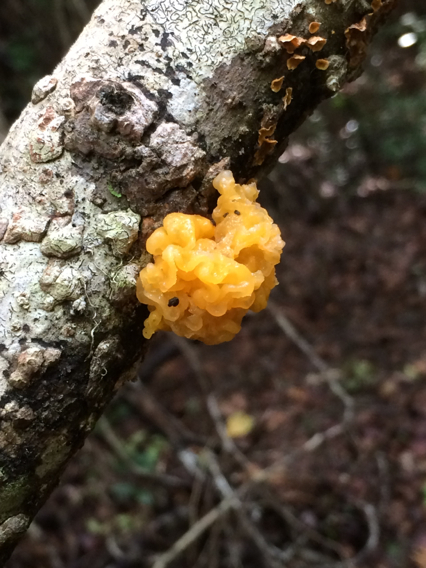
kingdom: Fungi
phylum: Basidiomycota
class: Tremellomycetes
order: Tremellales
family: Tremellaceae
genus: Tremella
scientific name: Tremella mesenterica
